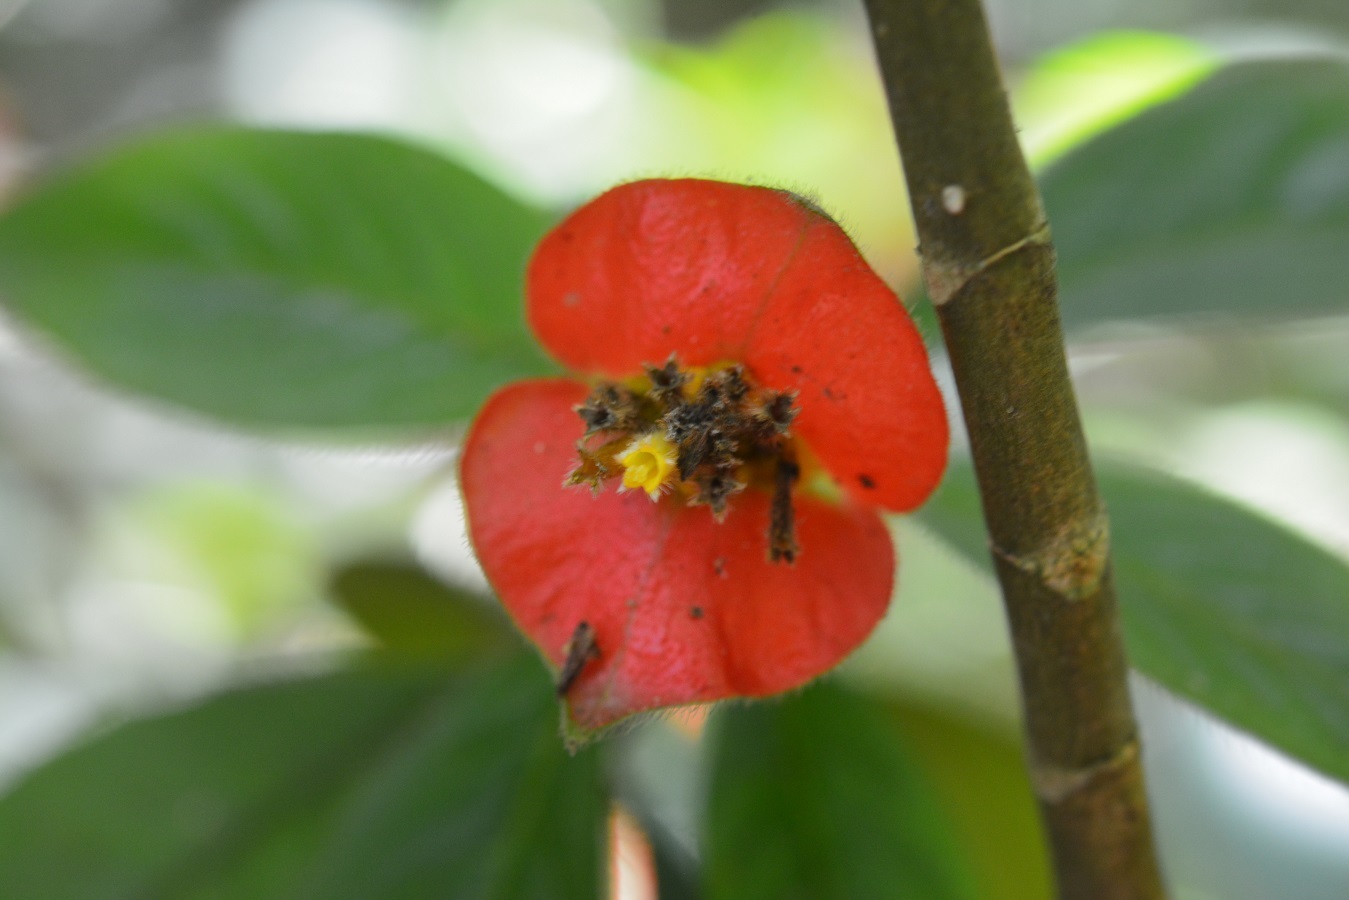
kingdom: Plantae
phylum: Tracheophyta
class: Magnoliopsida
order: Gentianales
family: Rubiaceae
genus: Palicourea
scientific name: Palicourea tomentosa
